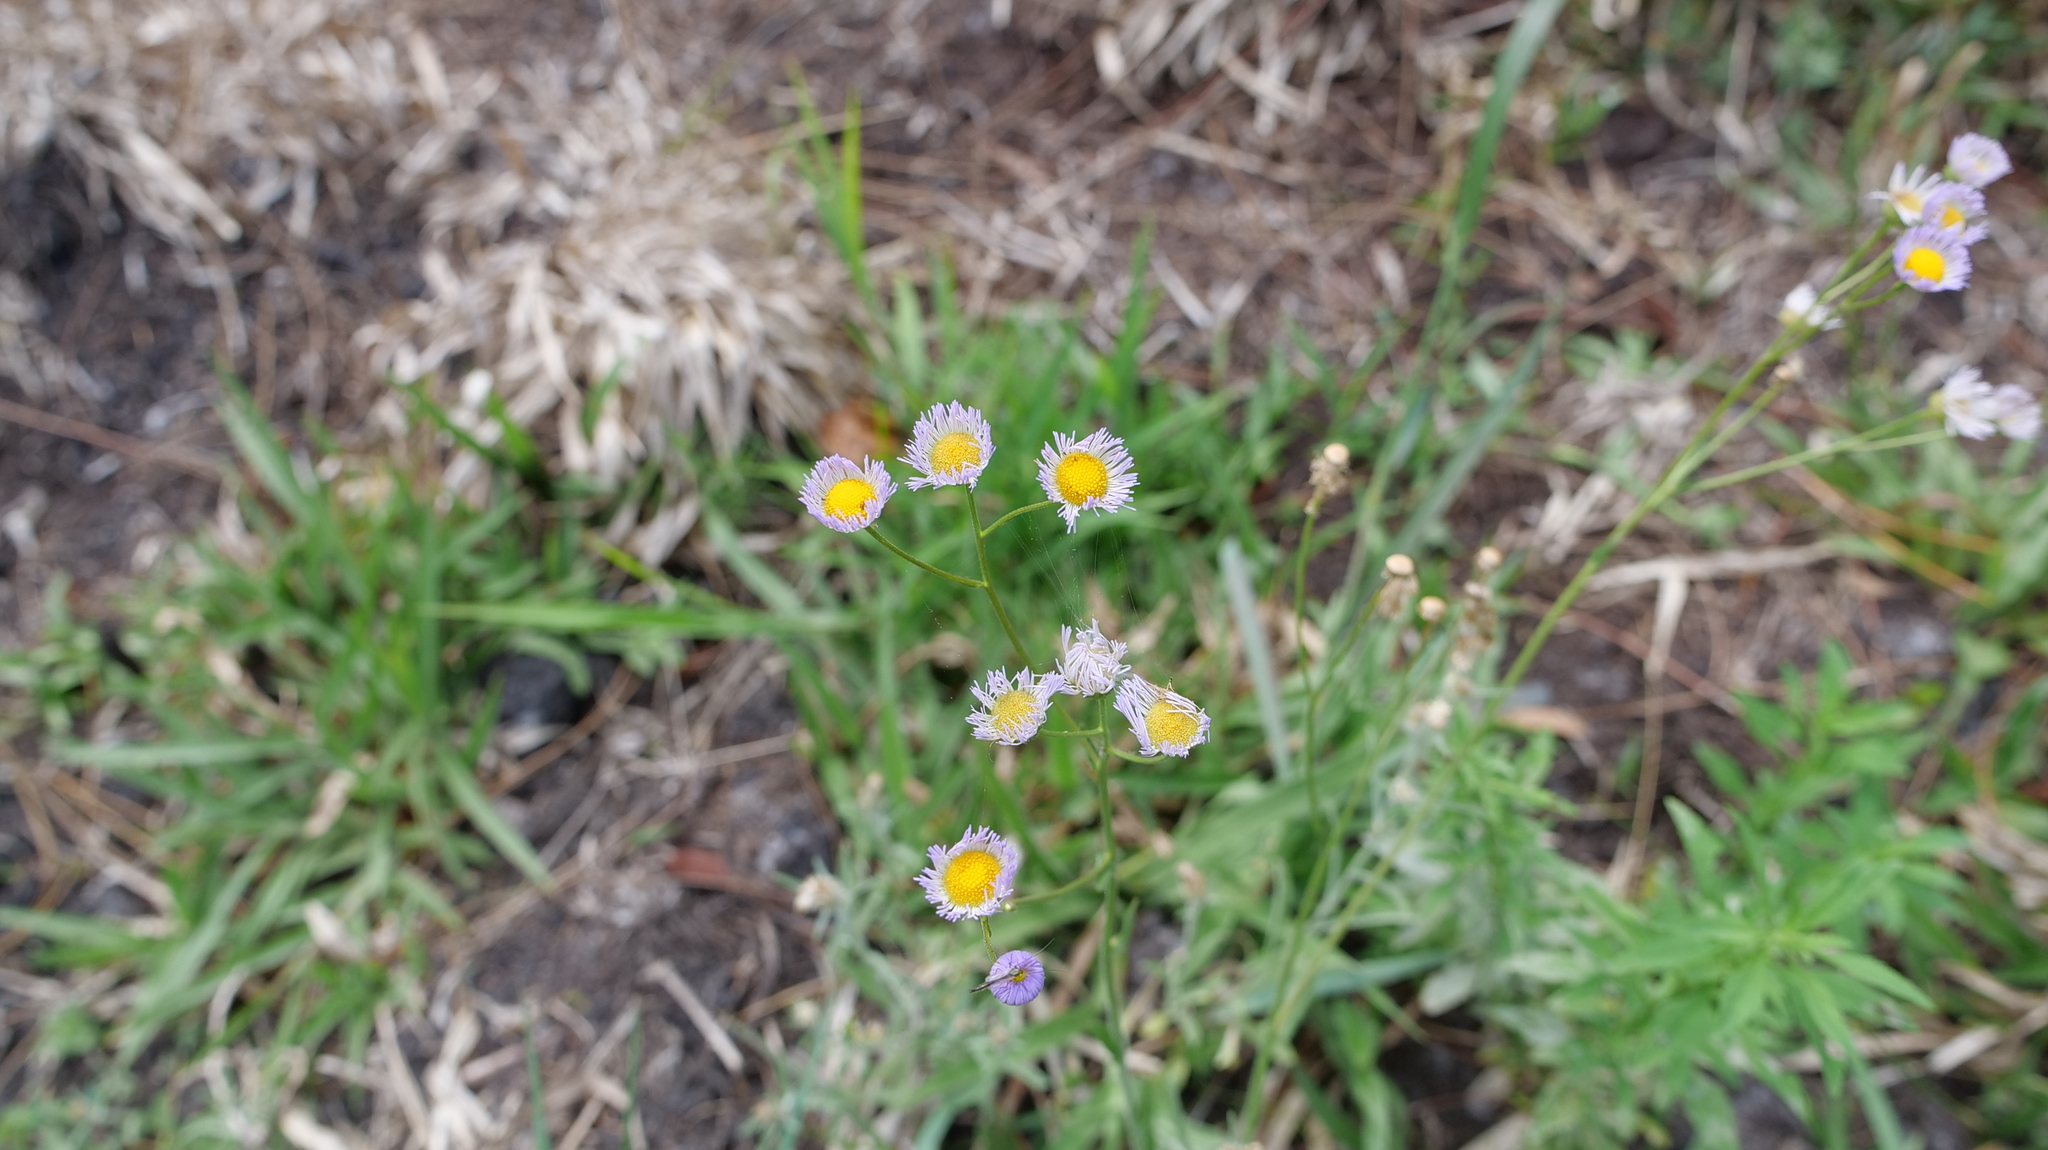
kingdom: Plantae
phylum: Tracheophyta
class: Magnoliopsida
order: Asterales
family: Asteraceae
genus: Erigeron
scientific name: Erigeron quercifolius
